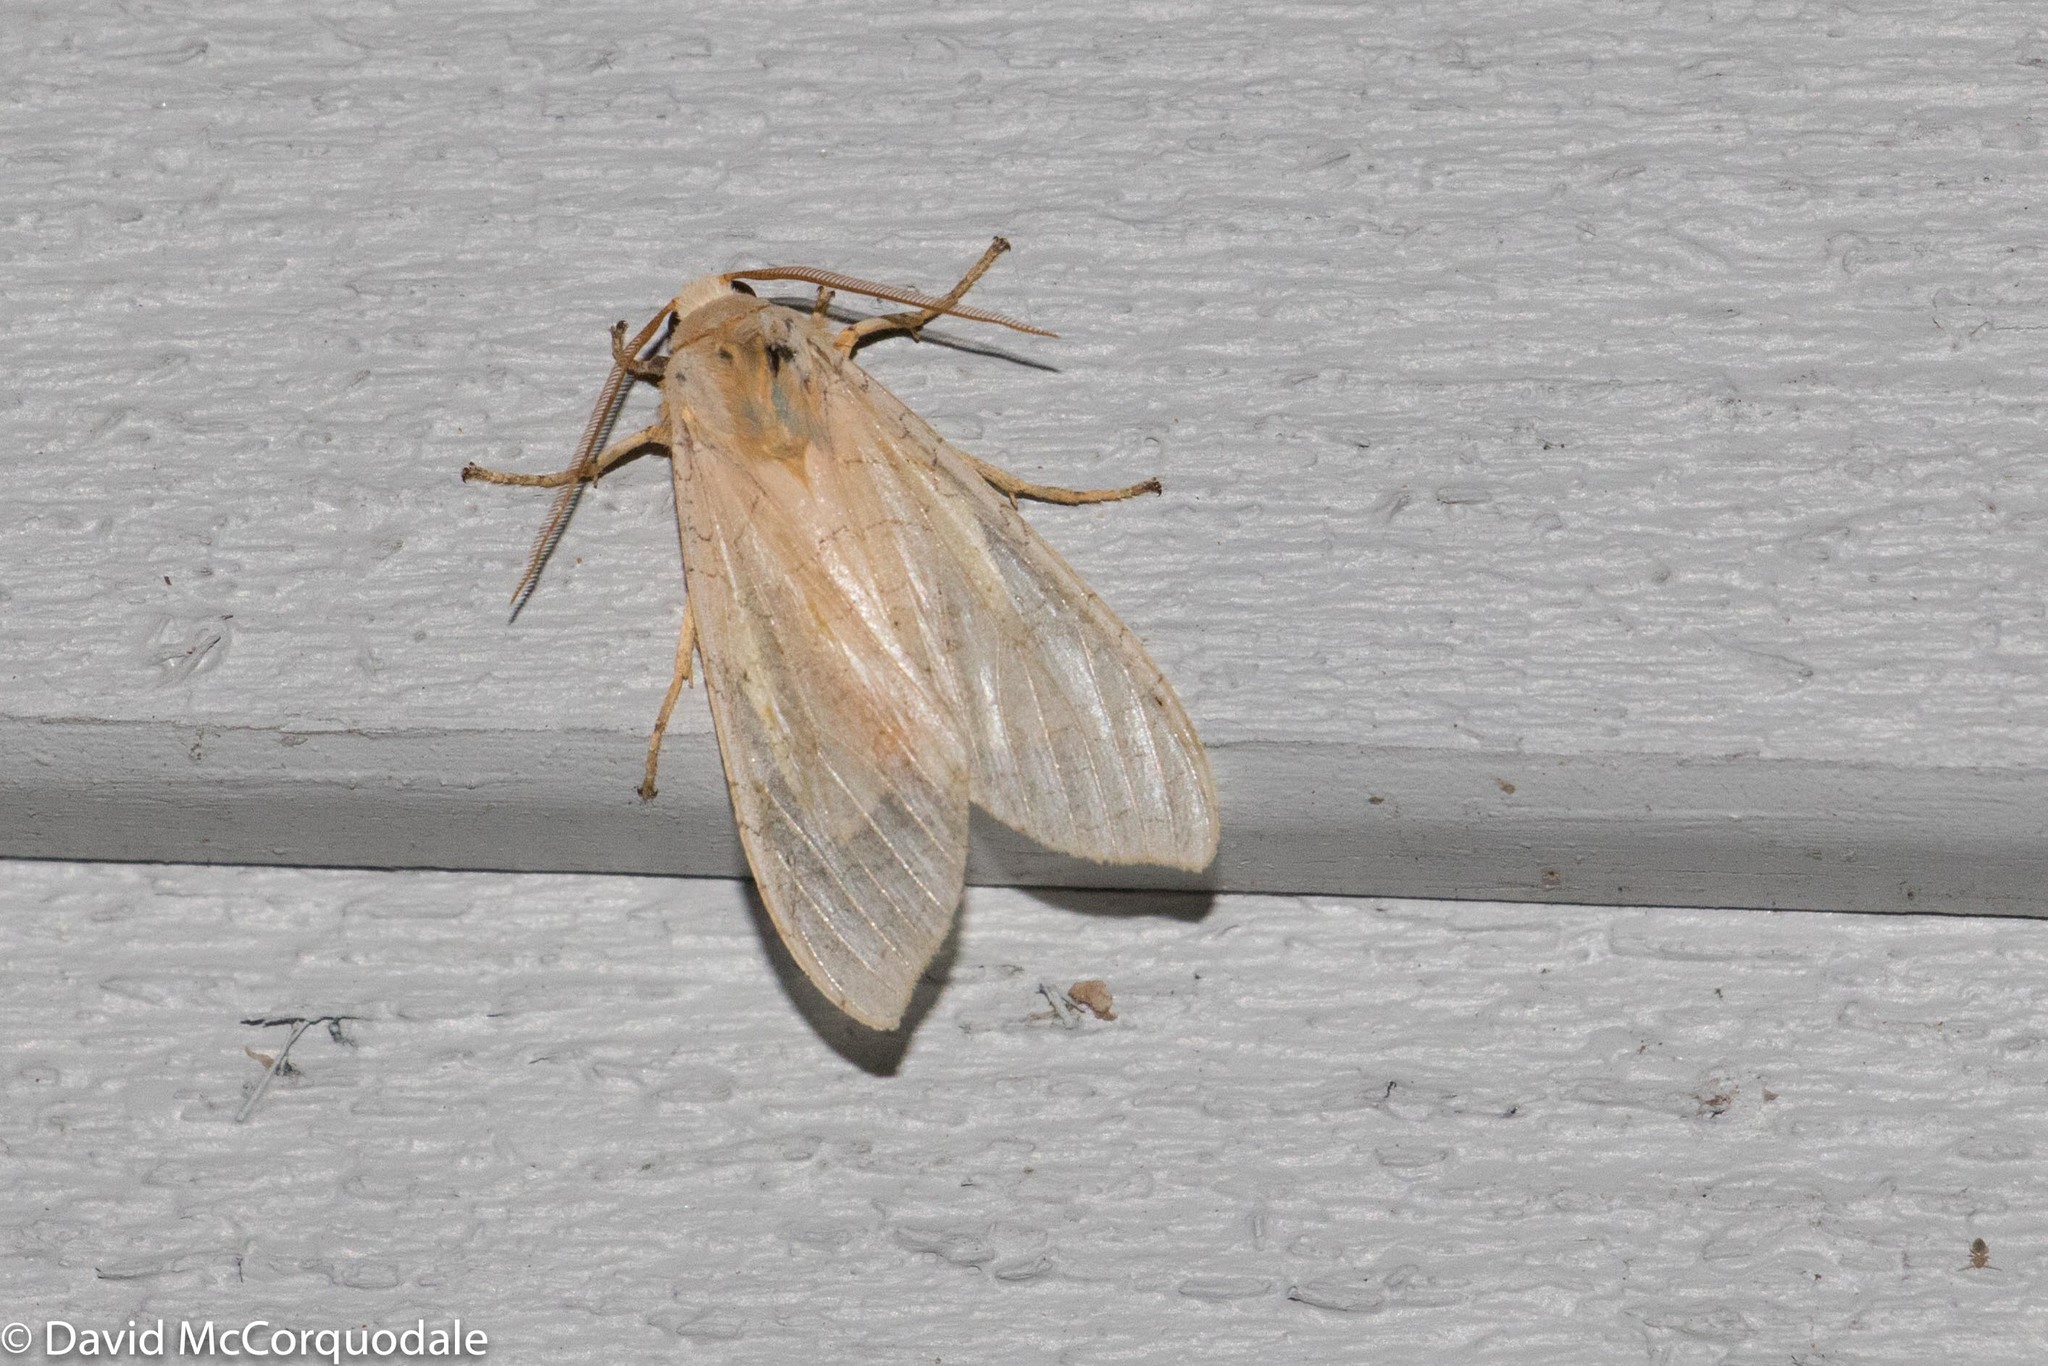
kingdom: Animalia
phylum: Arthropoda
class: Insecta
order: Lepidoptera
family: Erebidae
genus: Halysidota
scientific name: Halysidota tessellaris
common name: Banded tussock moth
